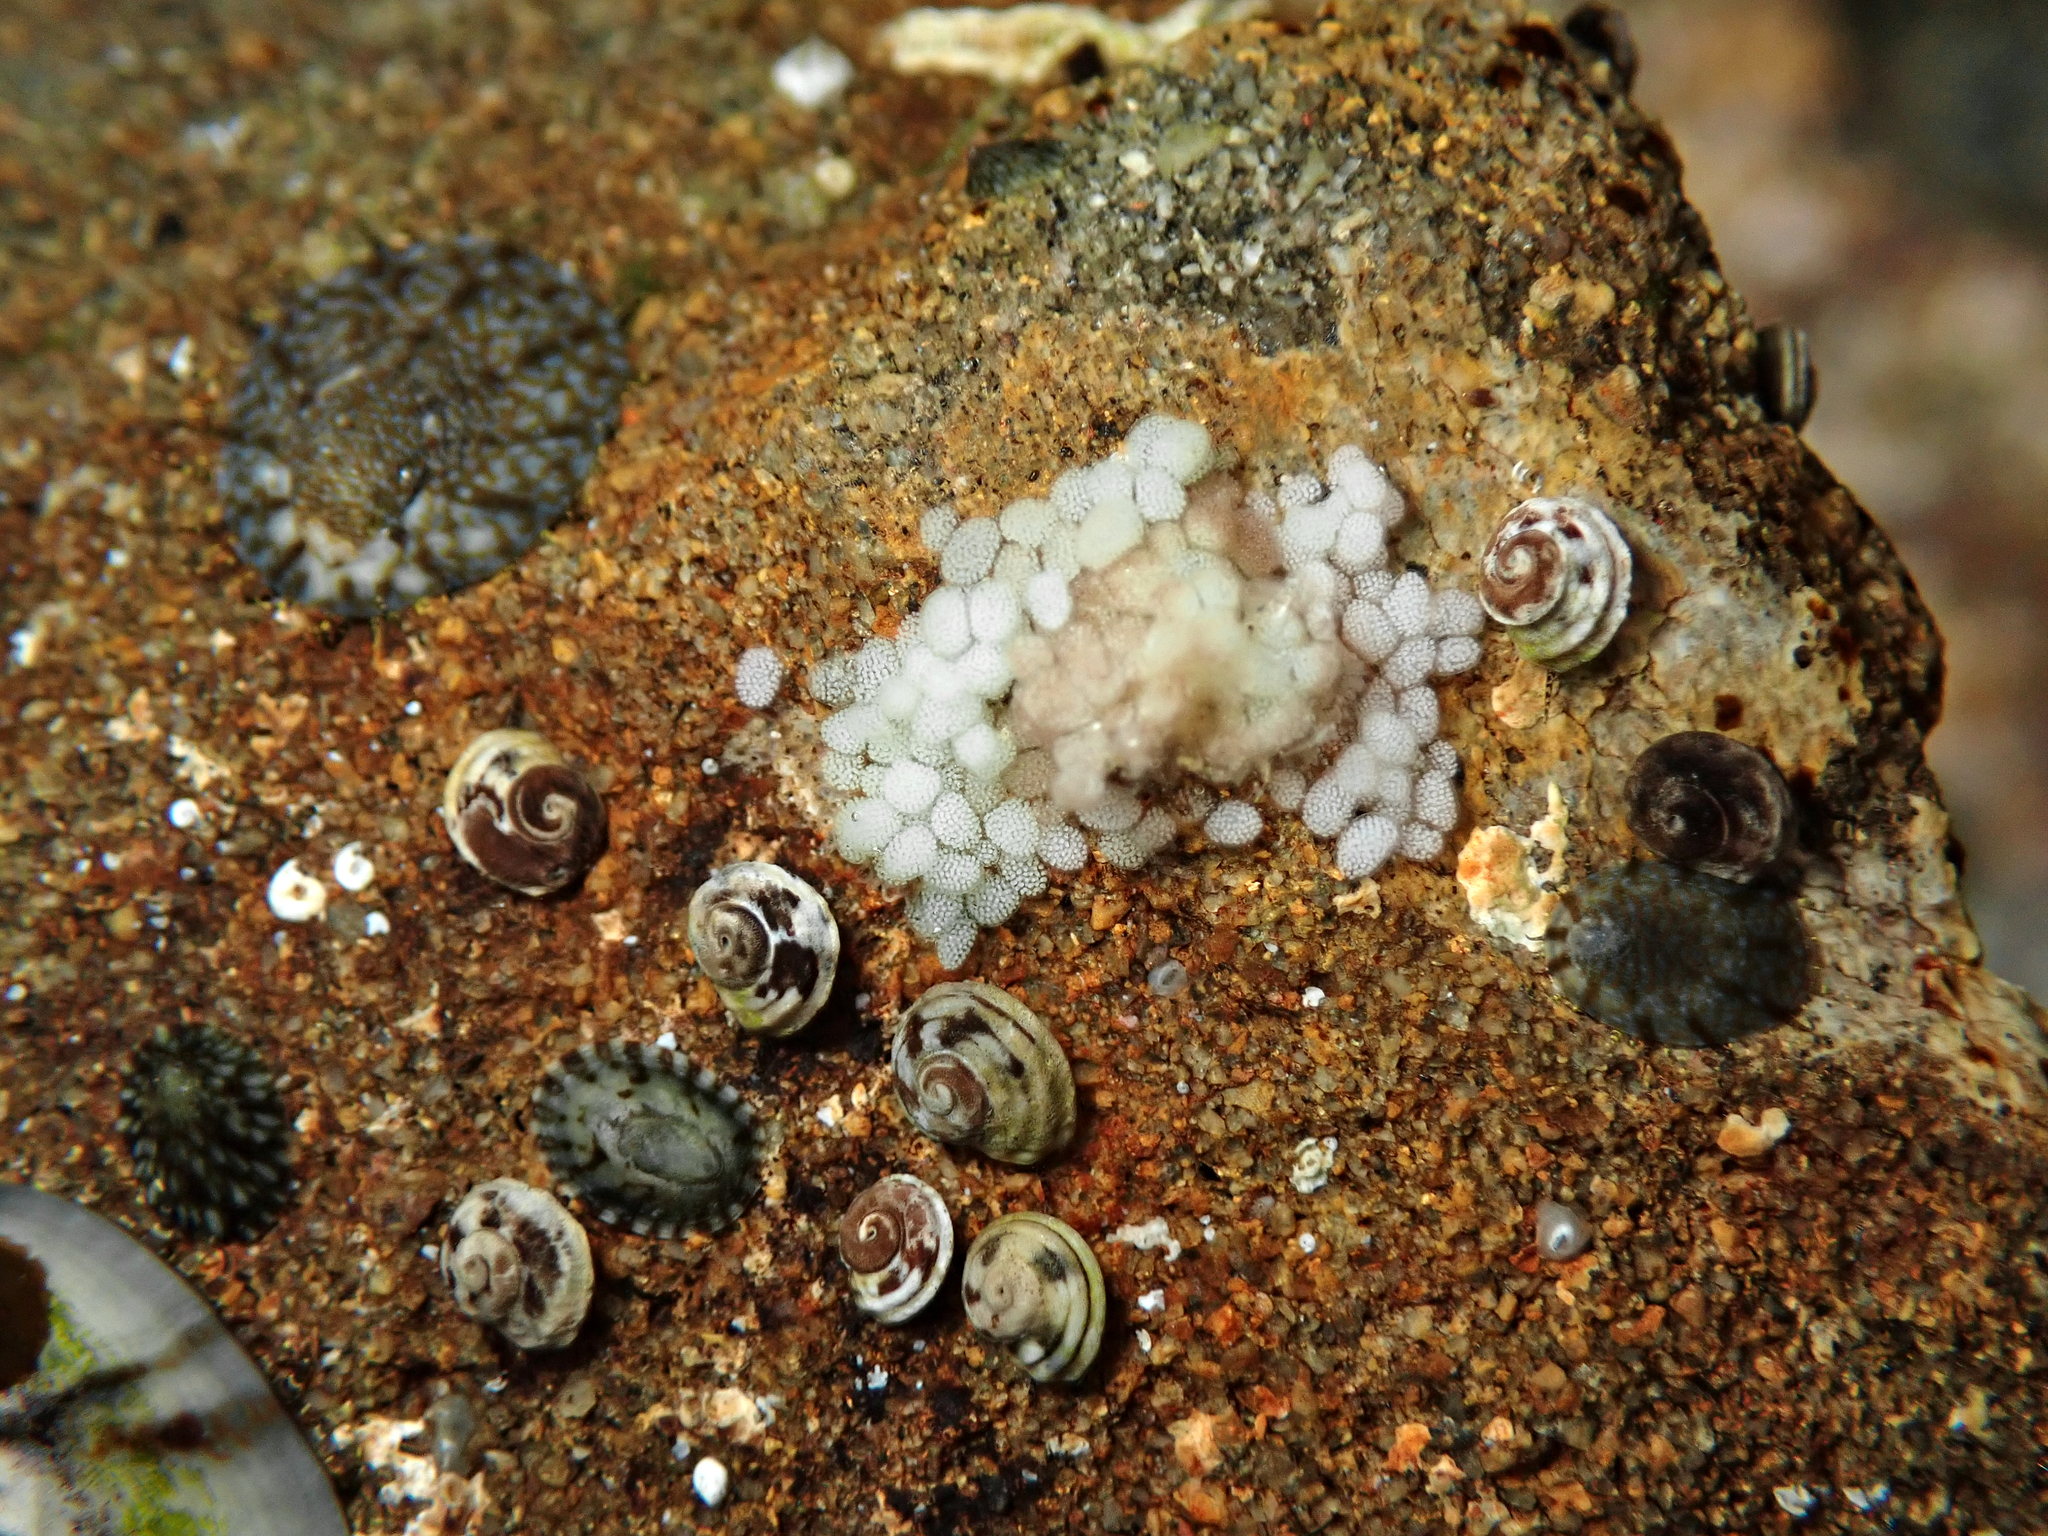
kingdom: Animalia
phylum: Mollusca
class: Gastropoda
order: Littorinimorpha
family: Littorinidae
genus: Risellopsis
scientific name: Risellopsis varia
